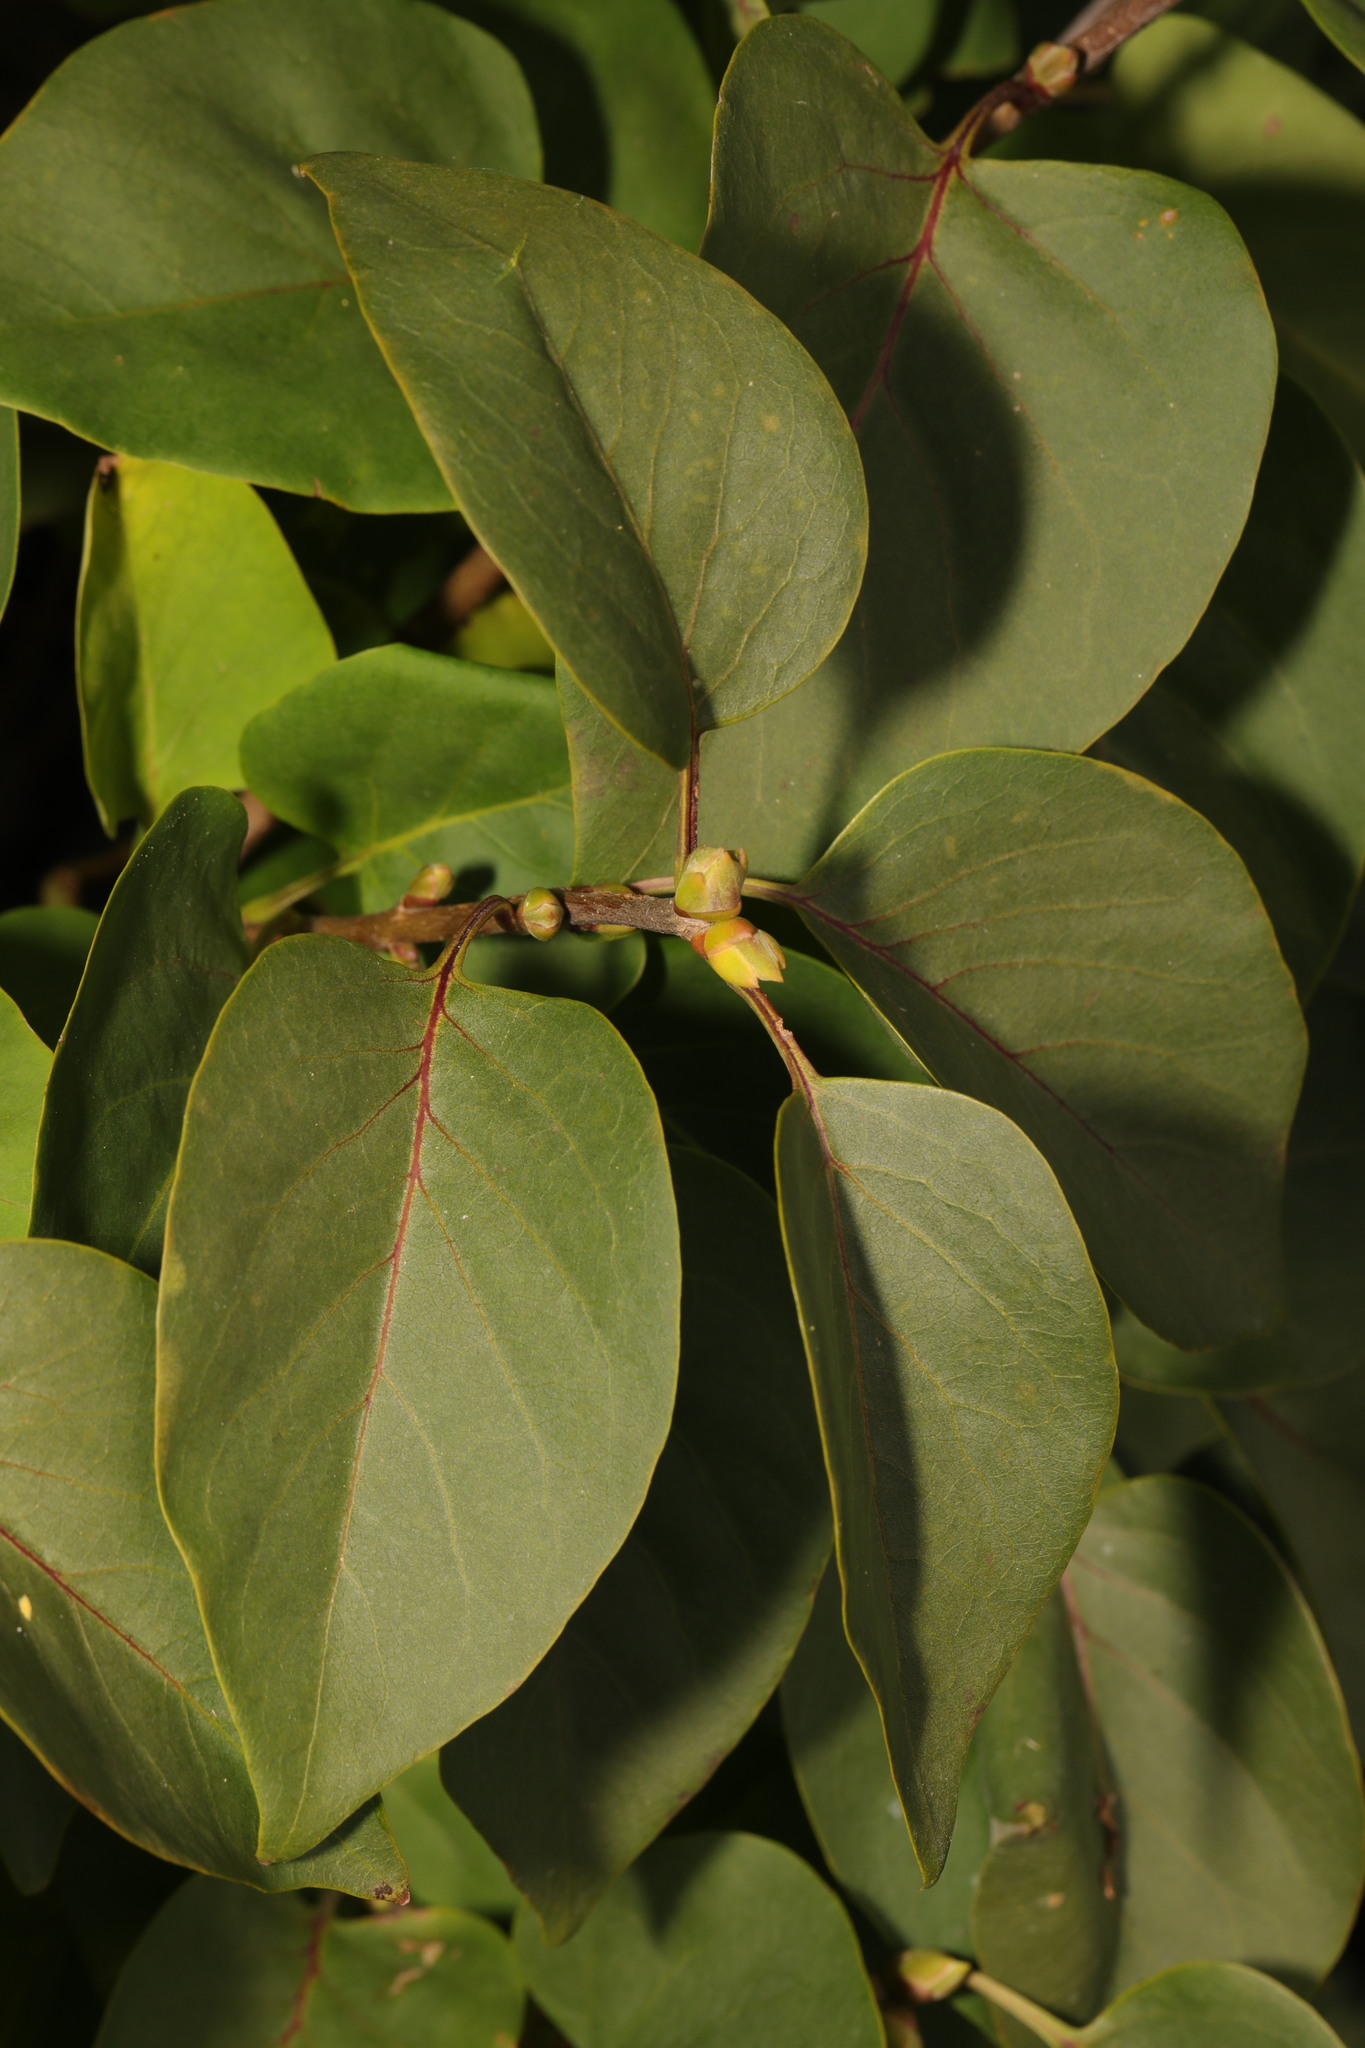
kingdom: Plantae
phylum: Tracheophyta
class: Magnoliopsida
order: Lamiales
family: Oleaceae
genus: Syringa
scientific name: Syringa vulgaris
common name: Common lilac
